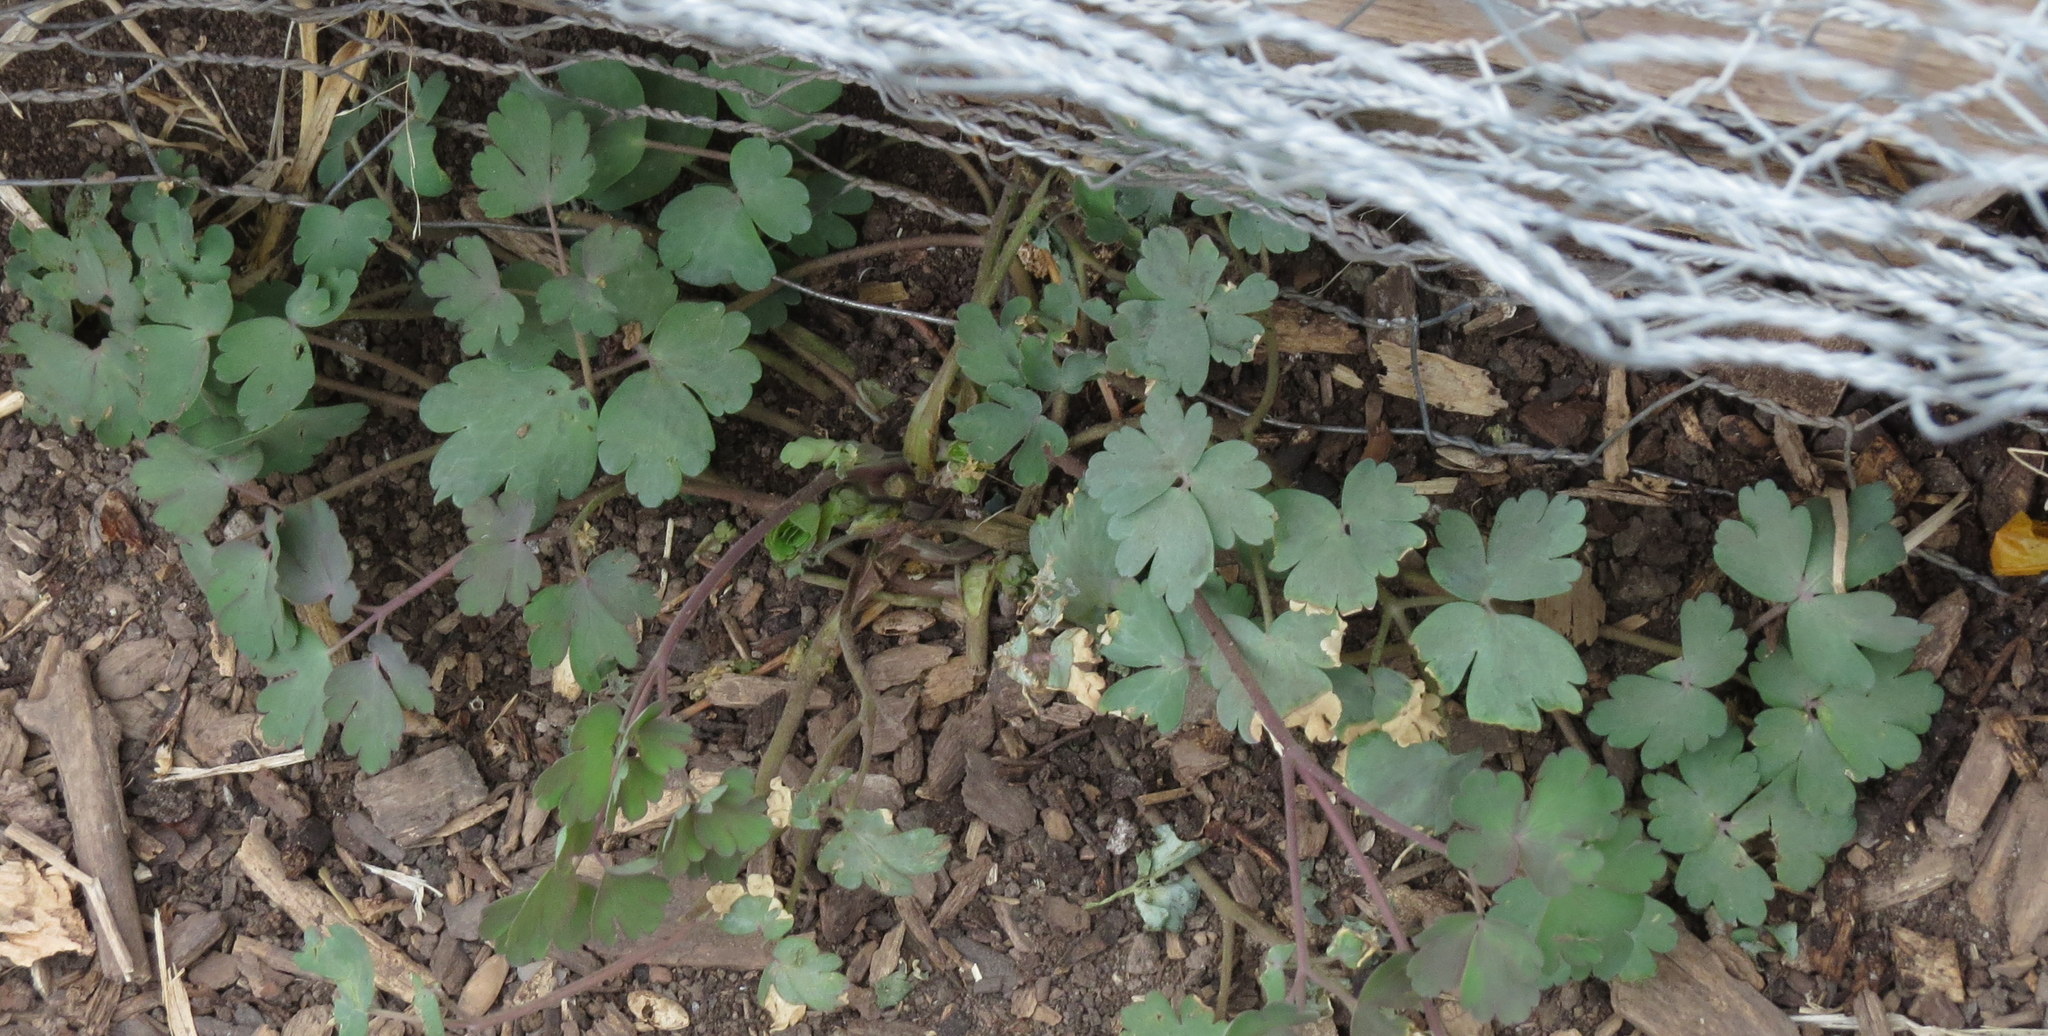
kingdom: Plantae
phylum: Tracheophyta
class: Magnoliopsida
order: Ranunculales
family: Ranunculaceae
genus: Aquilegia
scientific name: Aquilegia canadensis
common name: American columbine
